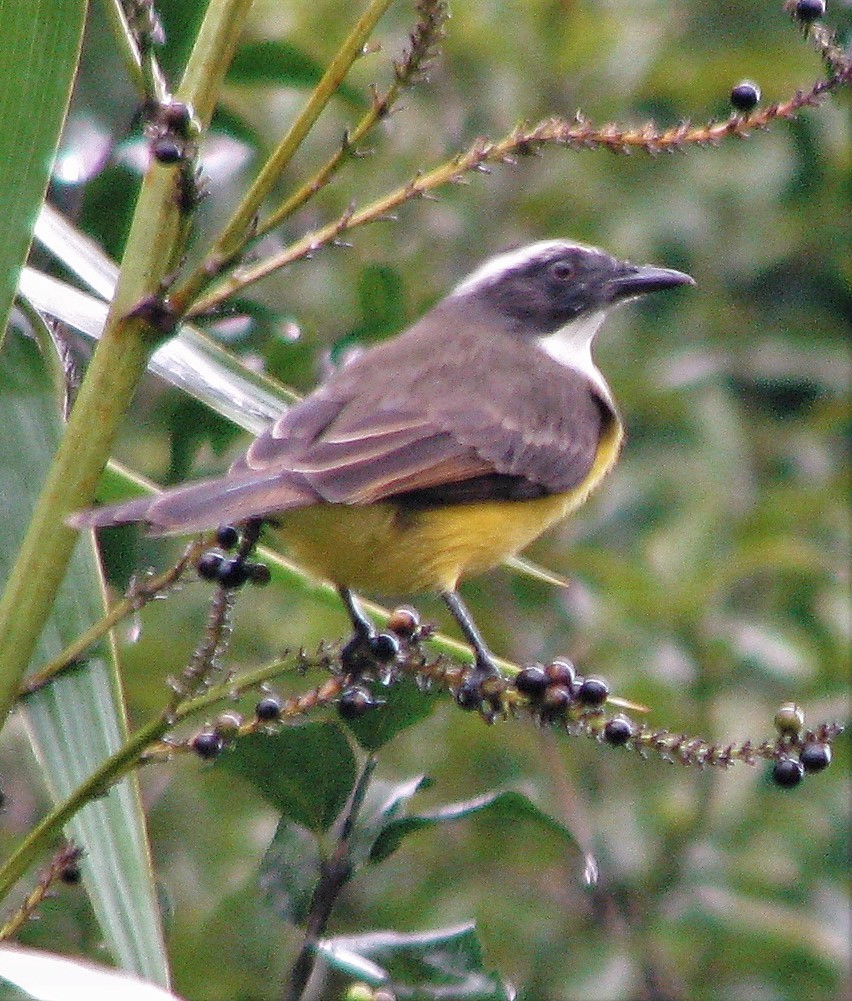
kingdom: Animalia
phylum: Chordata
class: Aves
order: Passeriformes
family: Tyrannidae
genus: Myiozetetes
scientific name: Myiozetetes similis
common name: Social flycatcher
